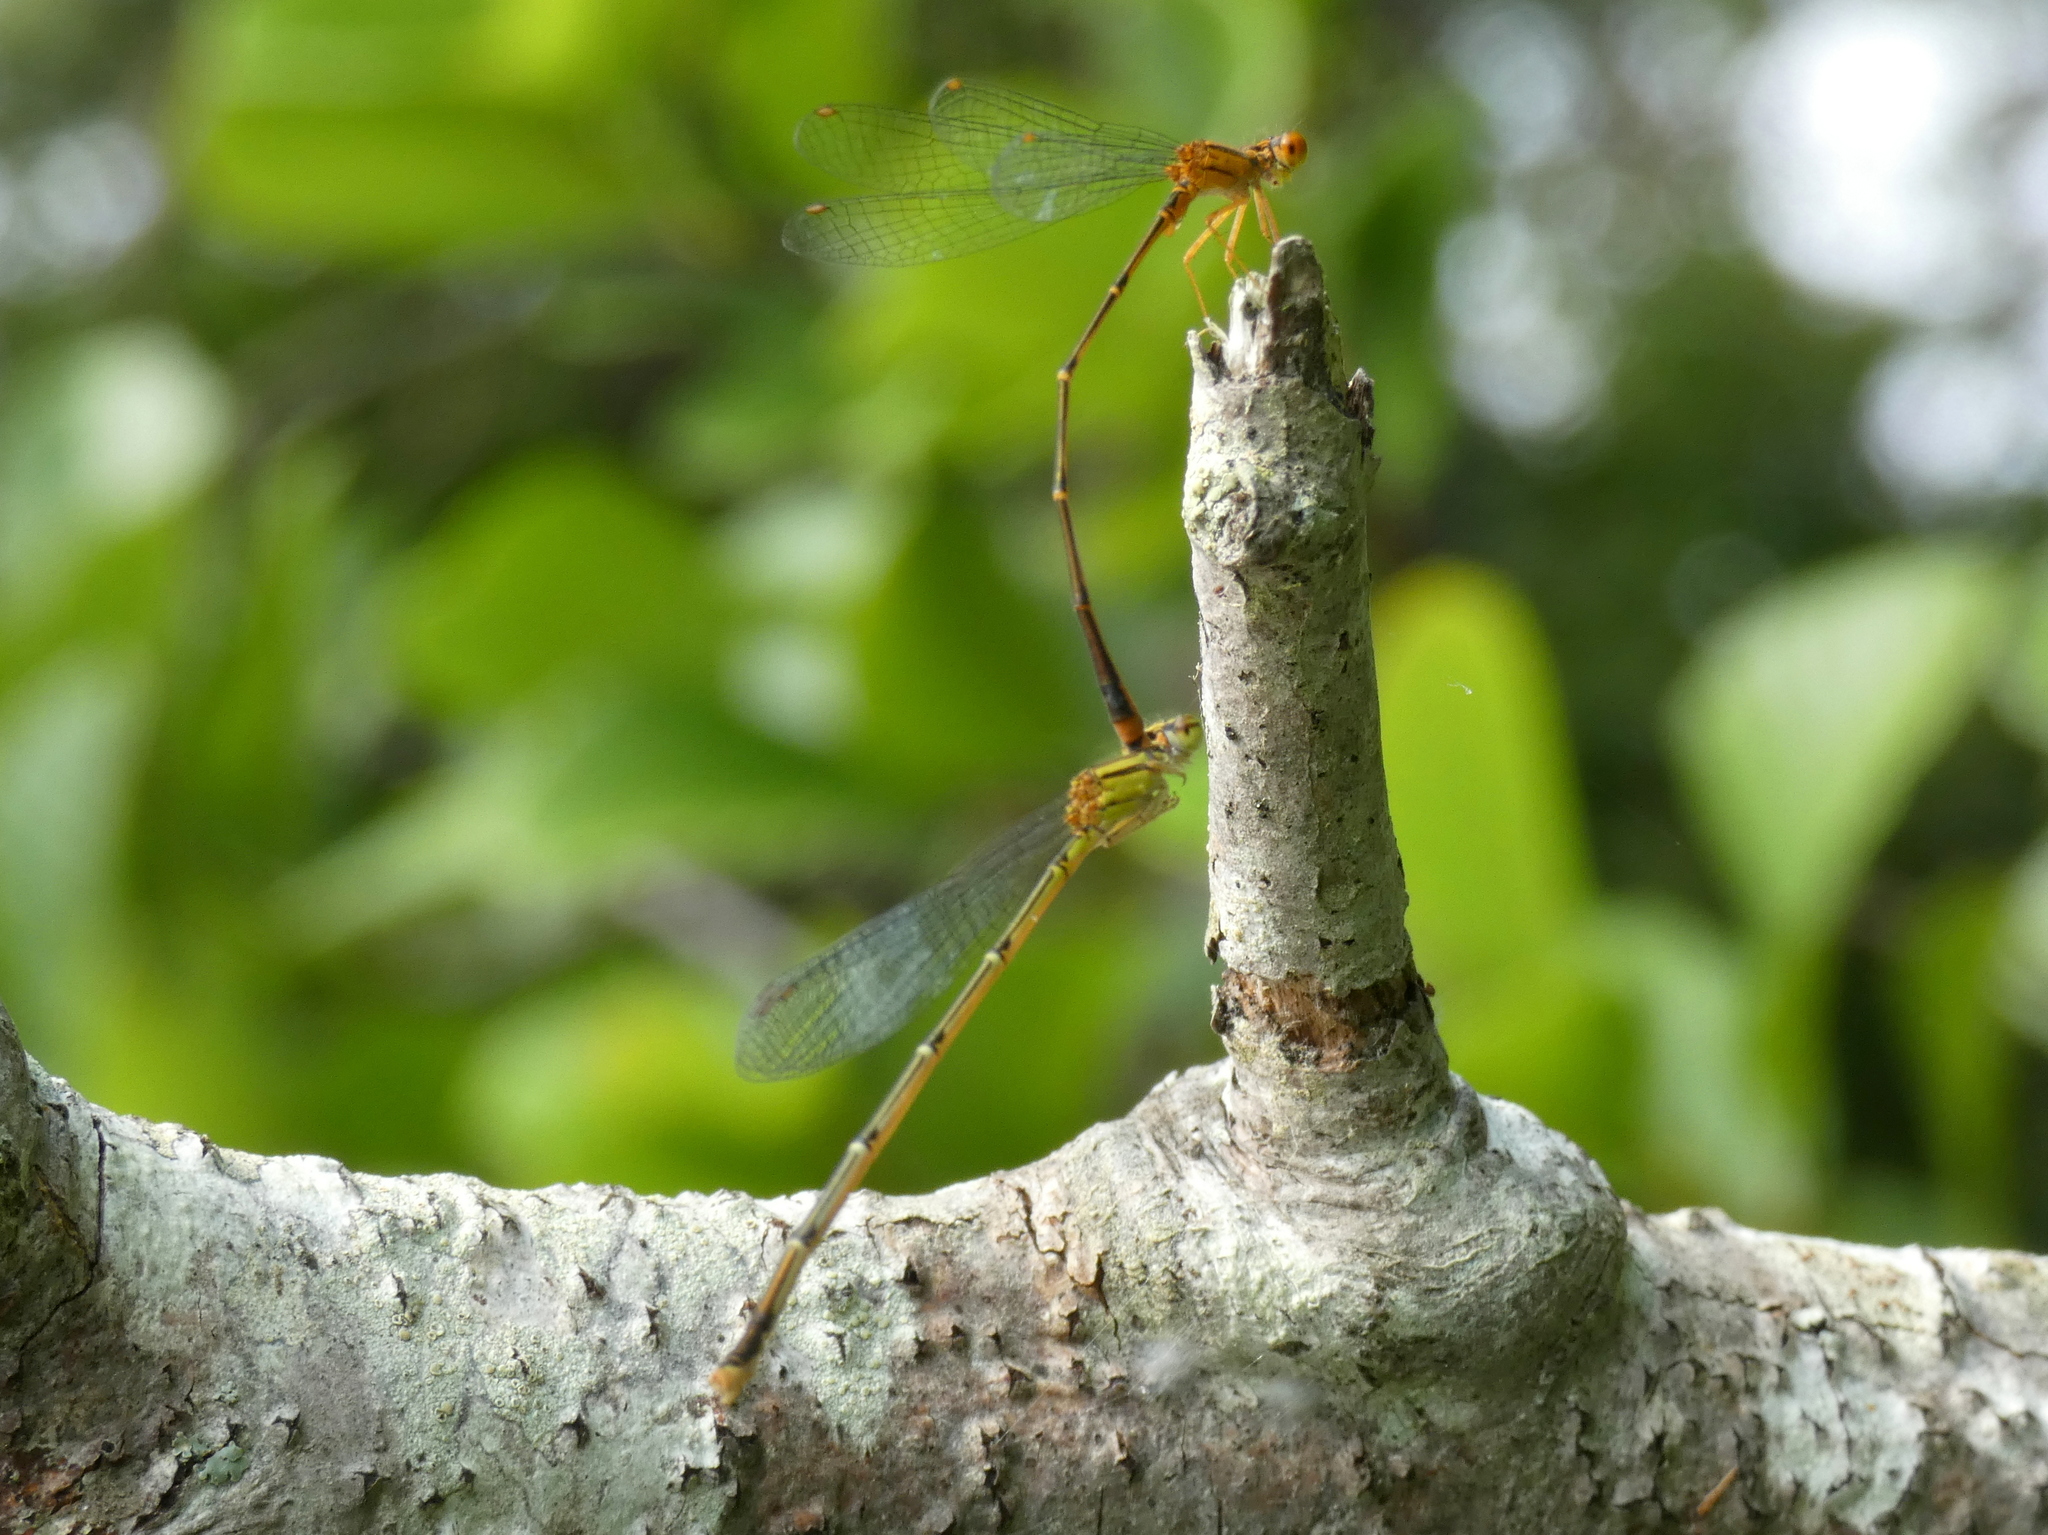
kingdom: Animalia
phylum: Arthropoda
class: Insecta
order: Odonata
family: Coenagrionidae
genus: Enallagma
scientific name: Enallagma signatum
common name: Orange bluet
